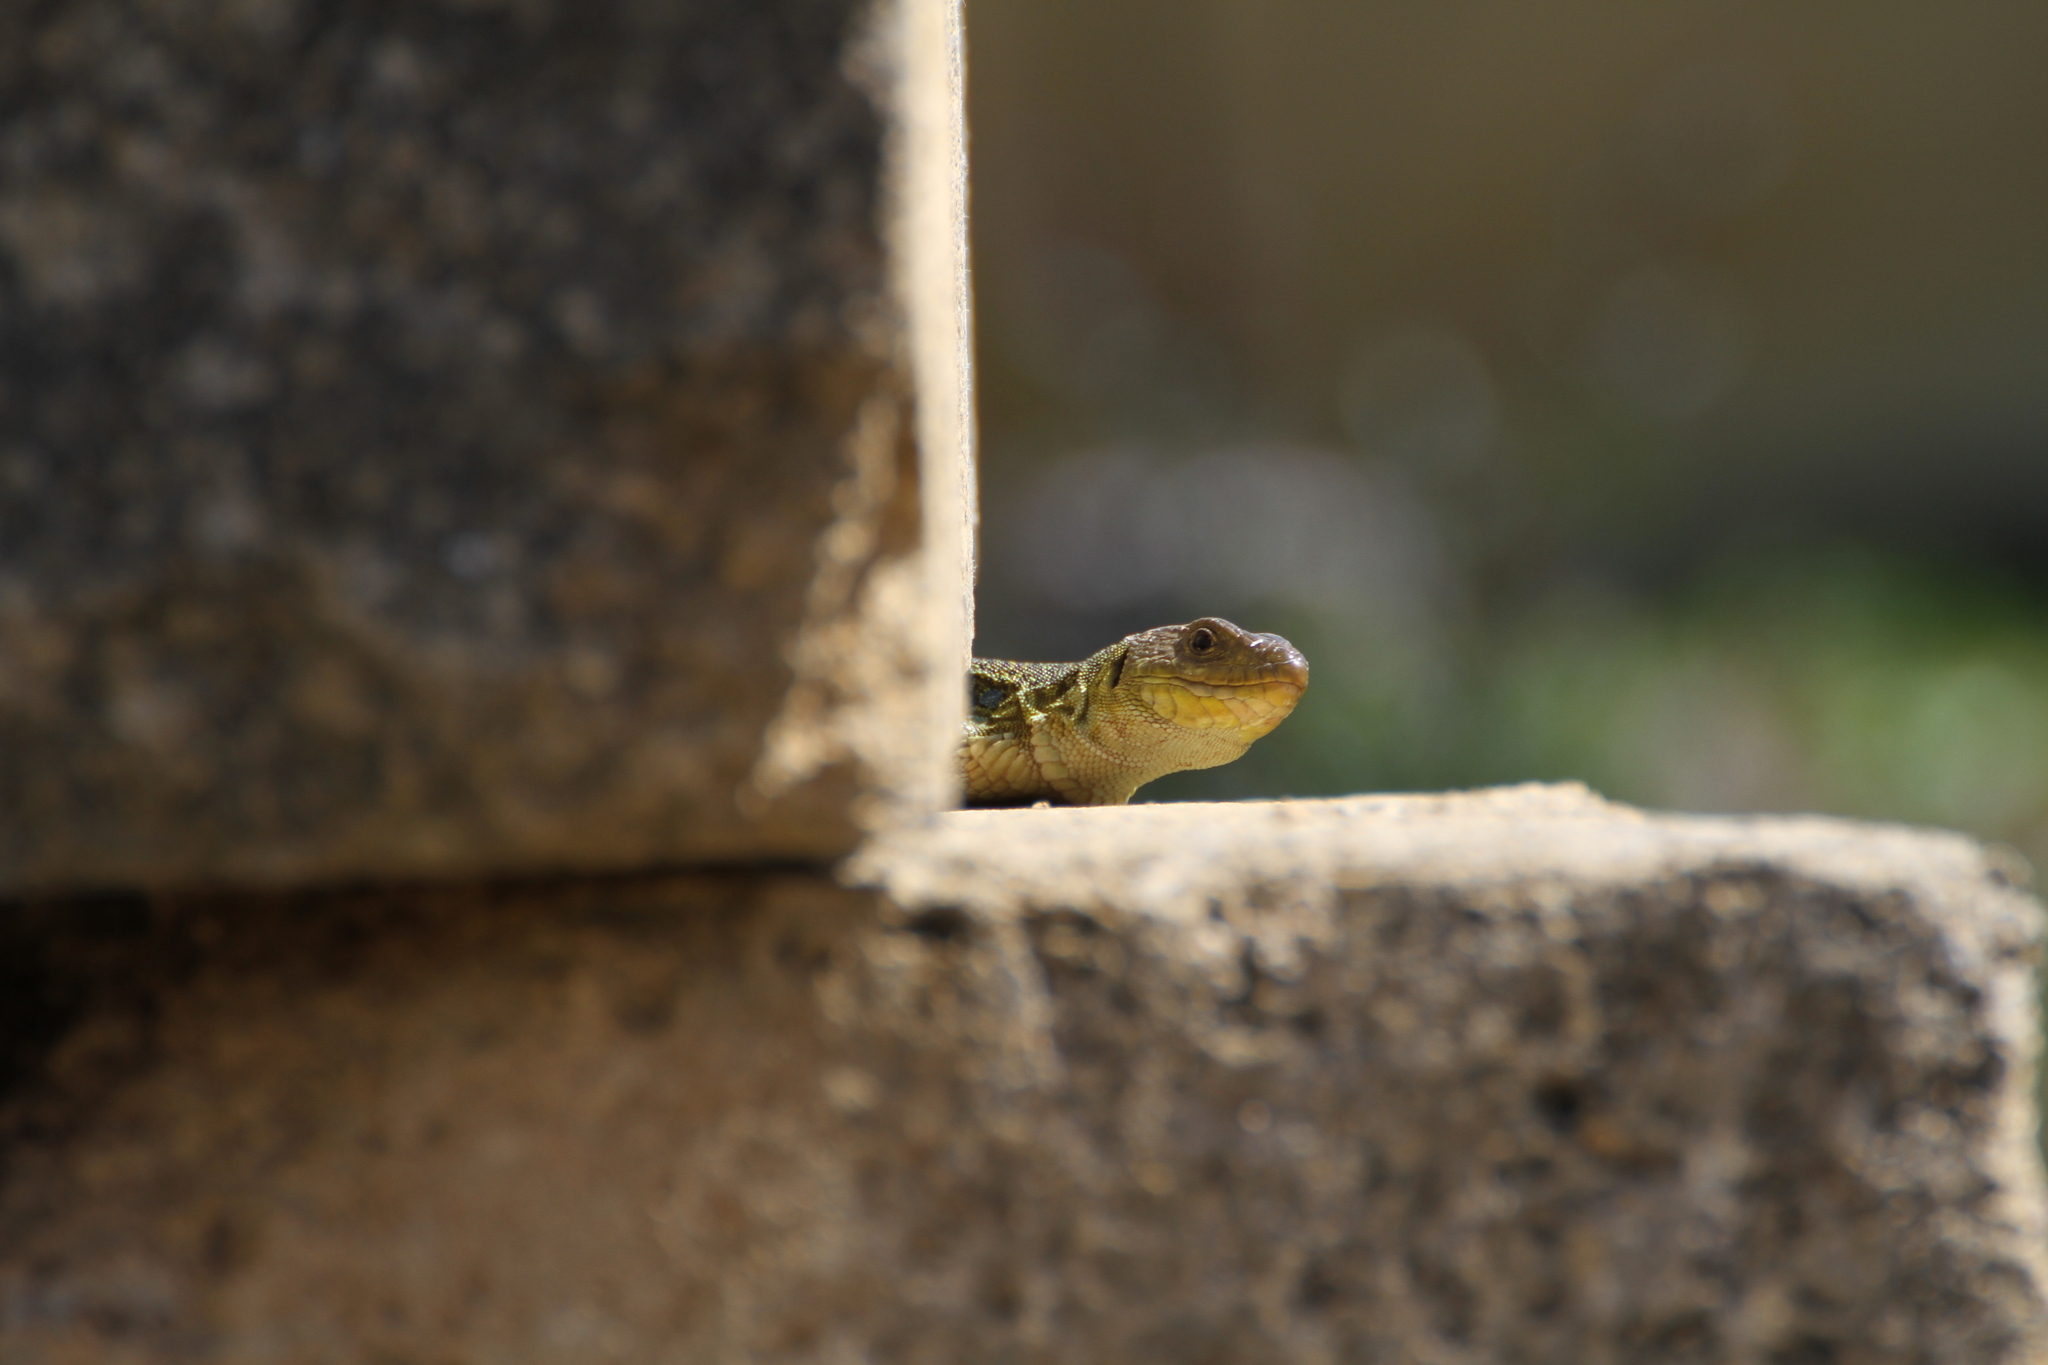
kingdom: Animalia
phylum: Chordata
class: Squamata
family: Lacertidae
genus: Timon
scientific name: Timon lepidus
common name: Ocellated lizard
